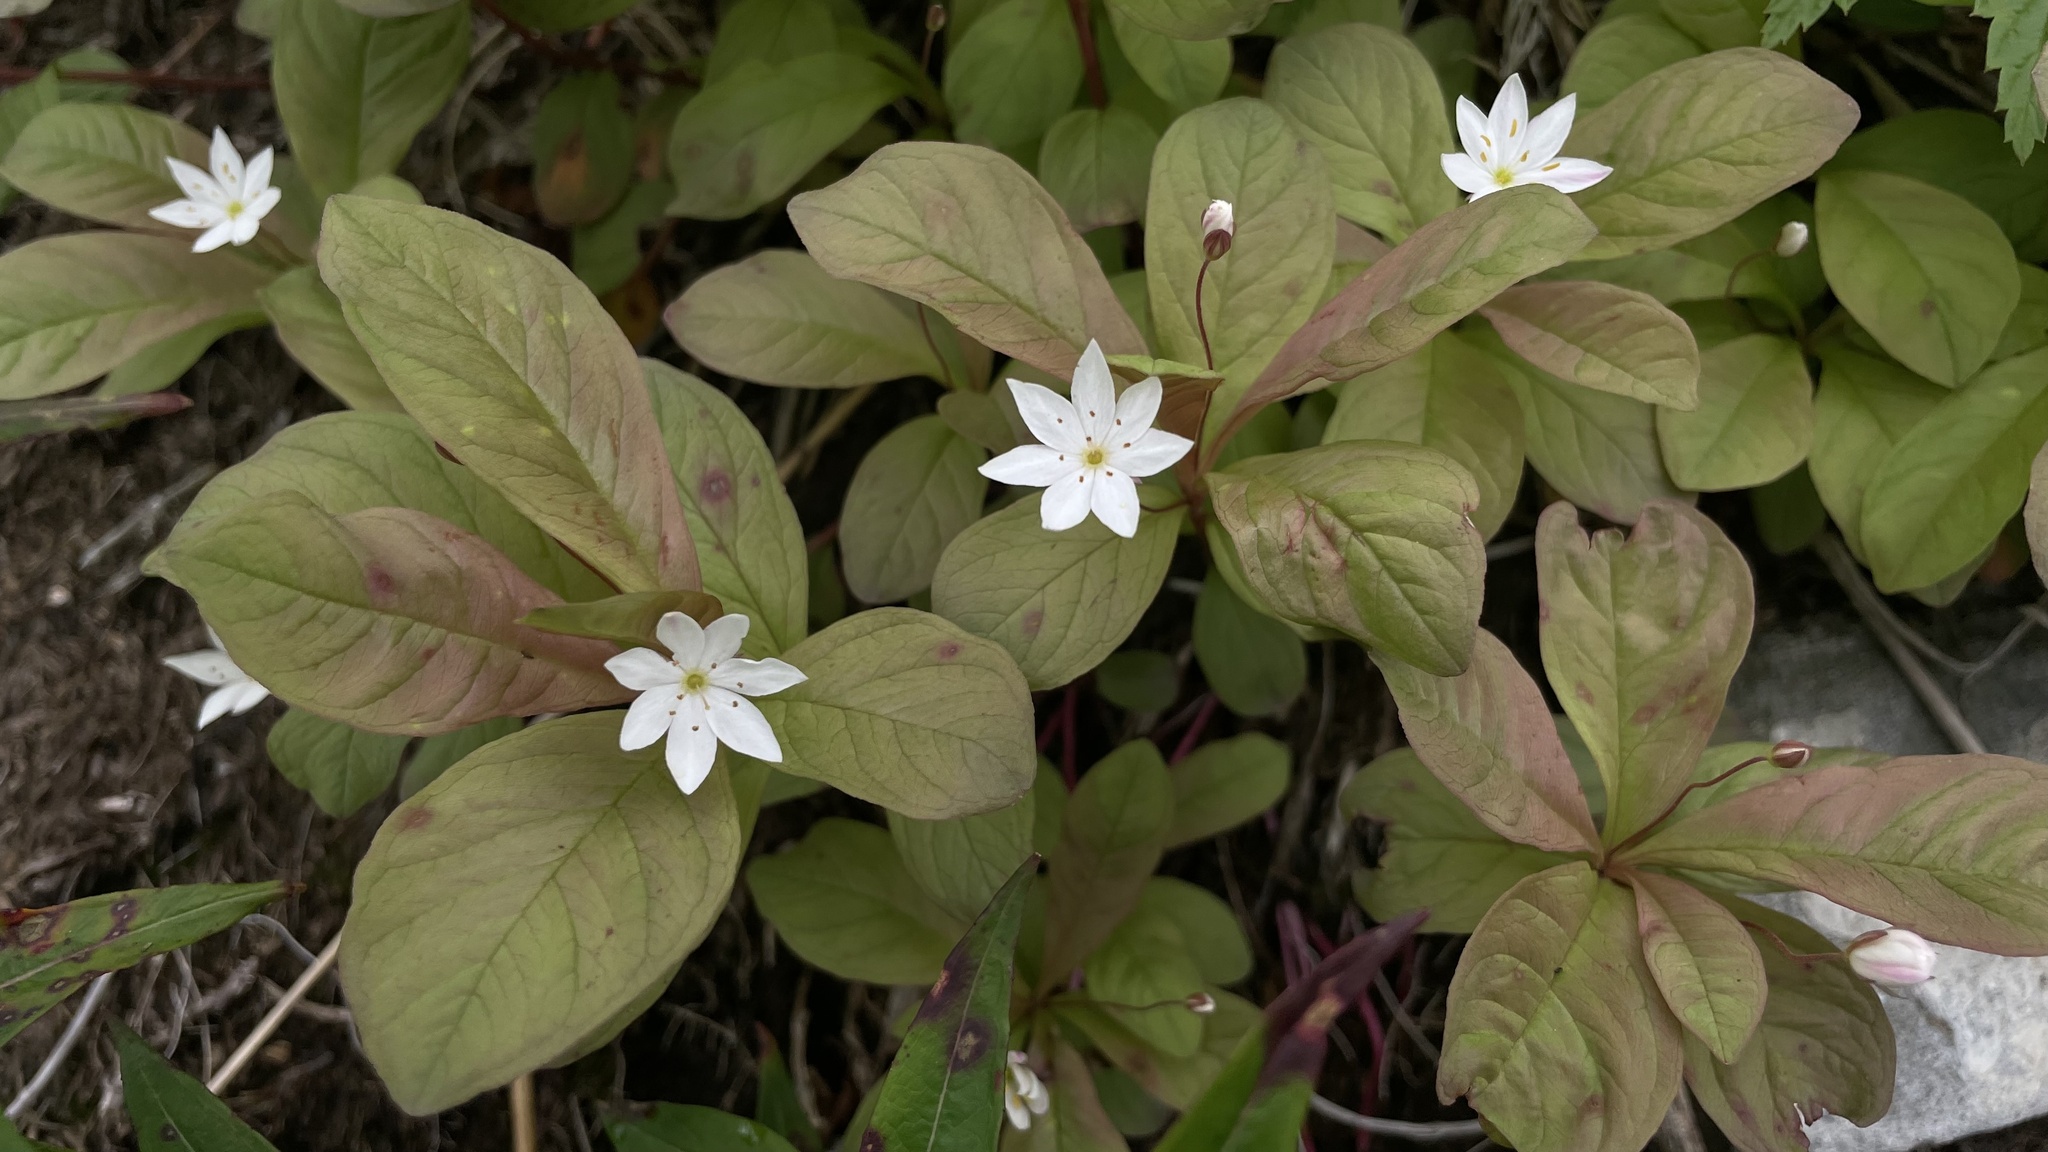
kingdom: Plantae
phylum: Tracheophyta
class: Magnoliopsida
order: Ericales
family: Primulaceae
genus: Lysimachia
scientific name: Lysimachia europaea
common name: Arctic starflower
